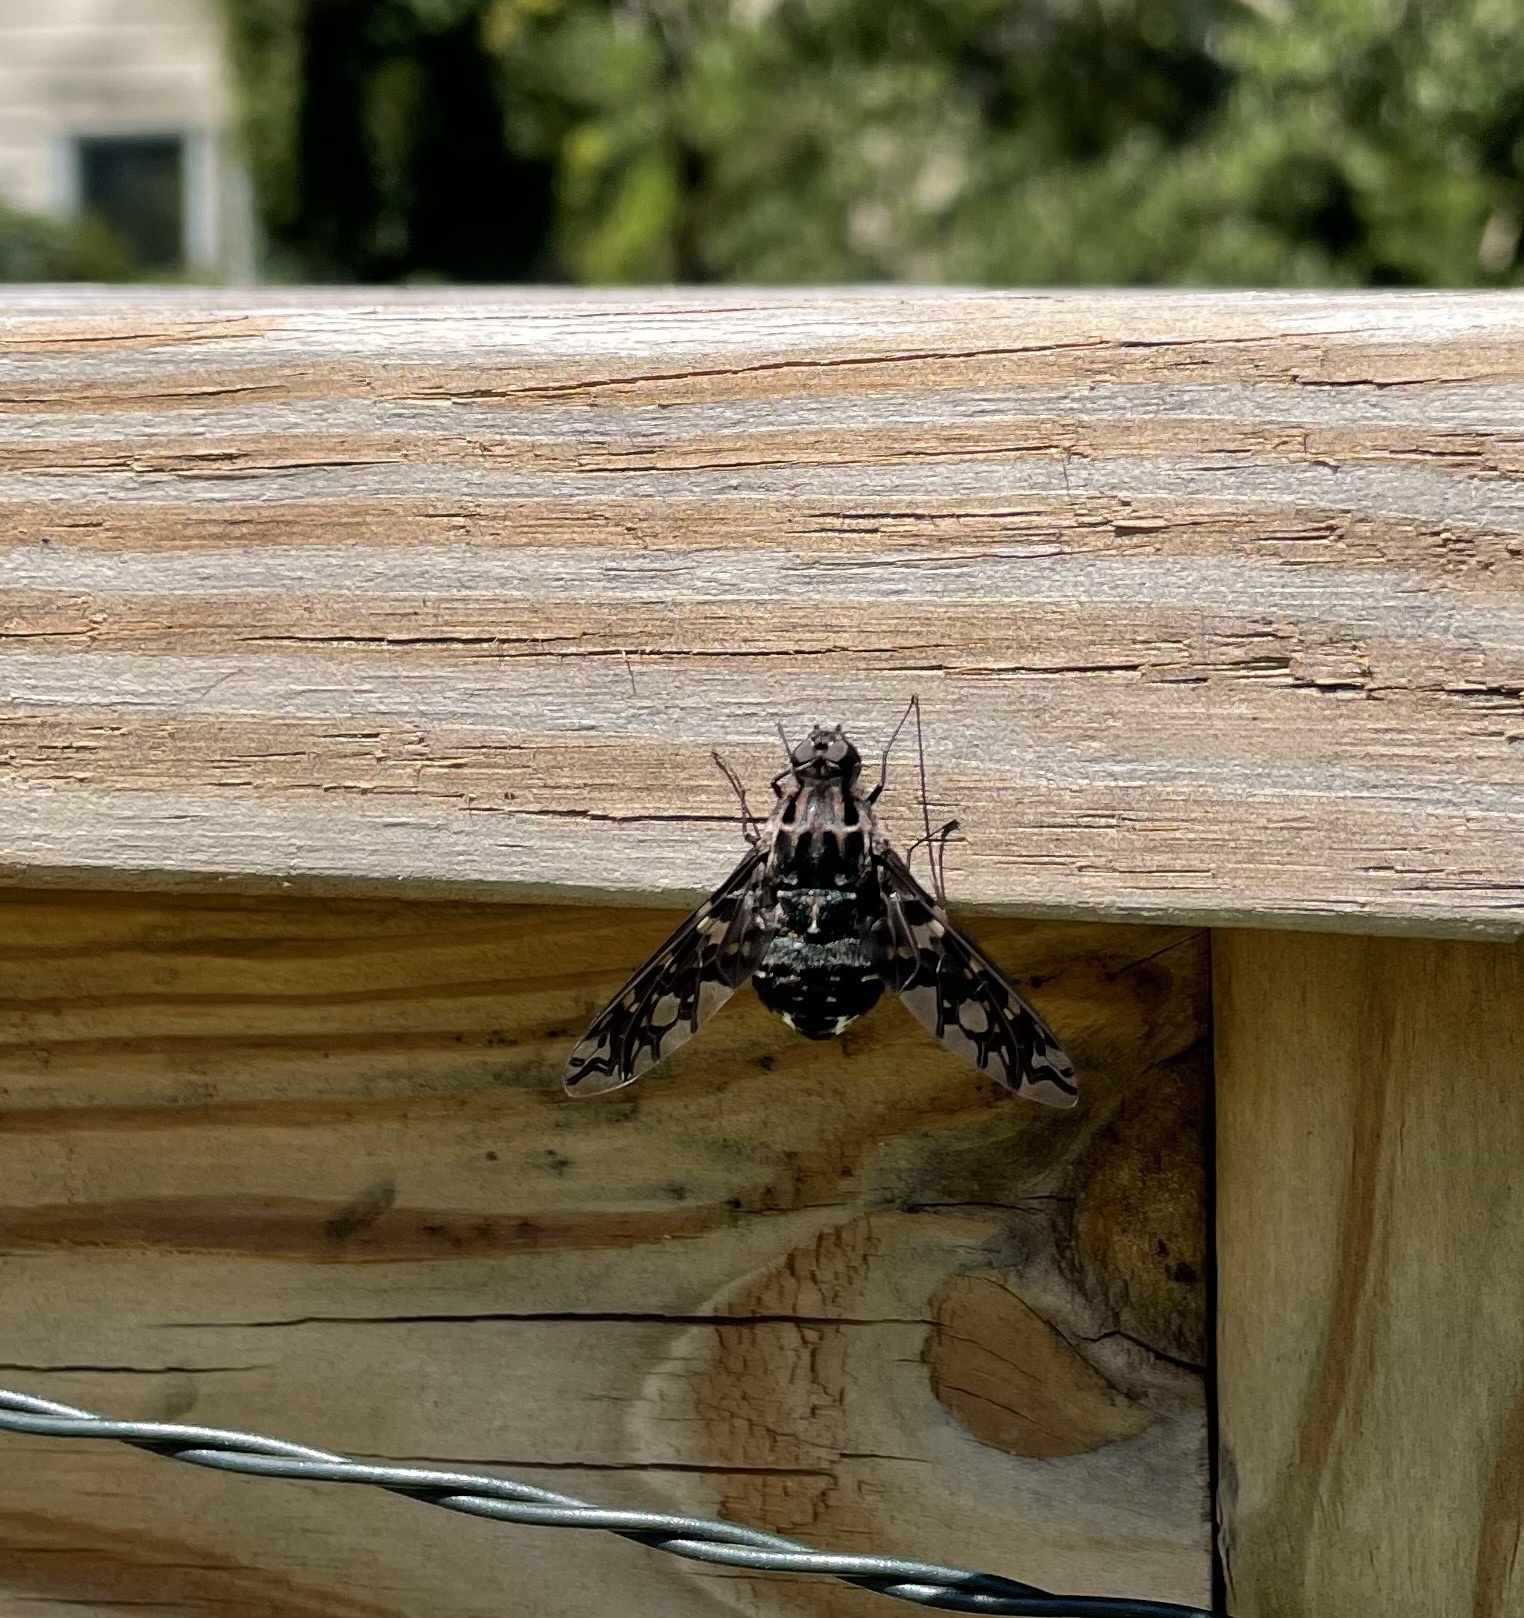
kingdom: Animalia
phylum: Arthropoda
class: Insecta
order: Diptera
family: Bombyliidae
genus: Xenox
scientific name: Xenox tigrinus
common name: Tiger bee fly
